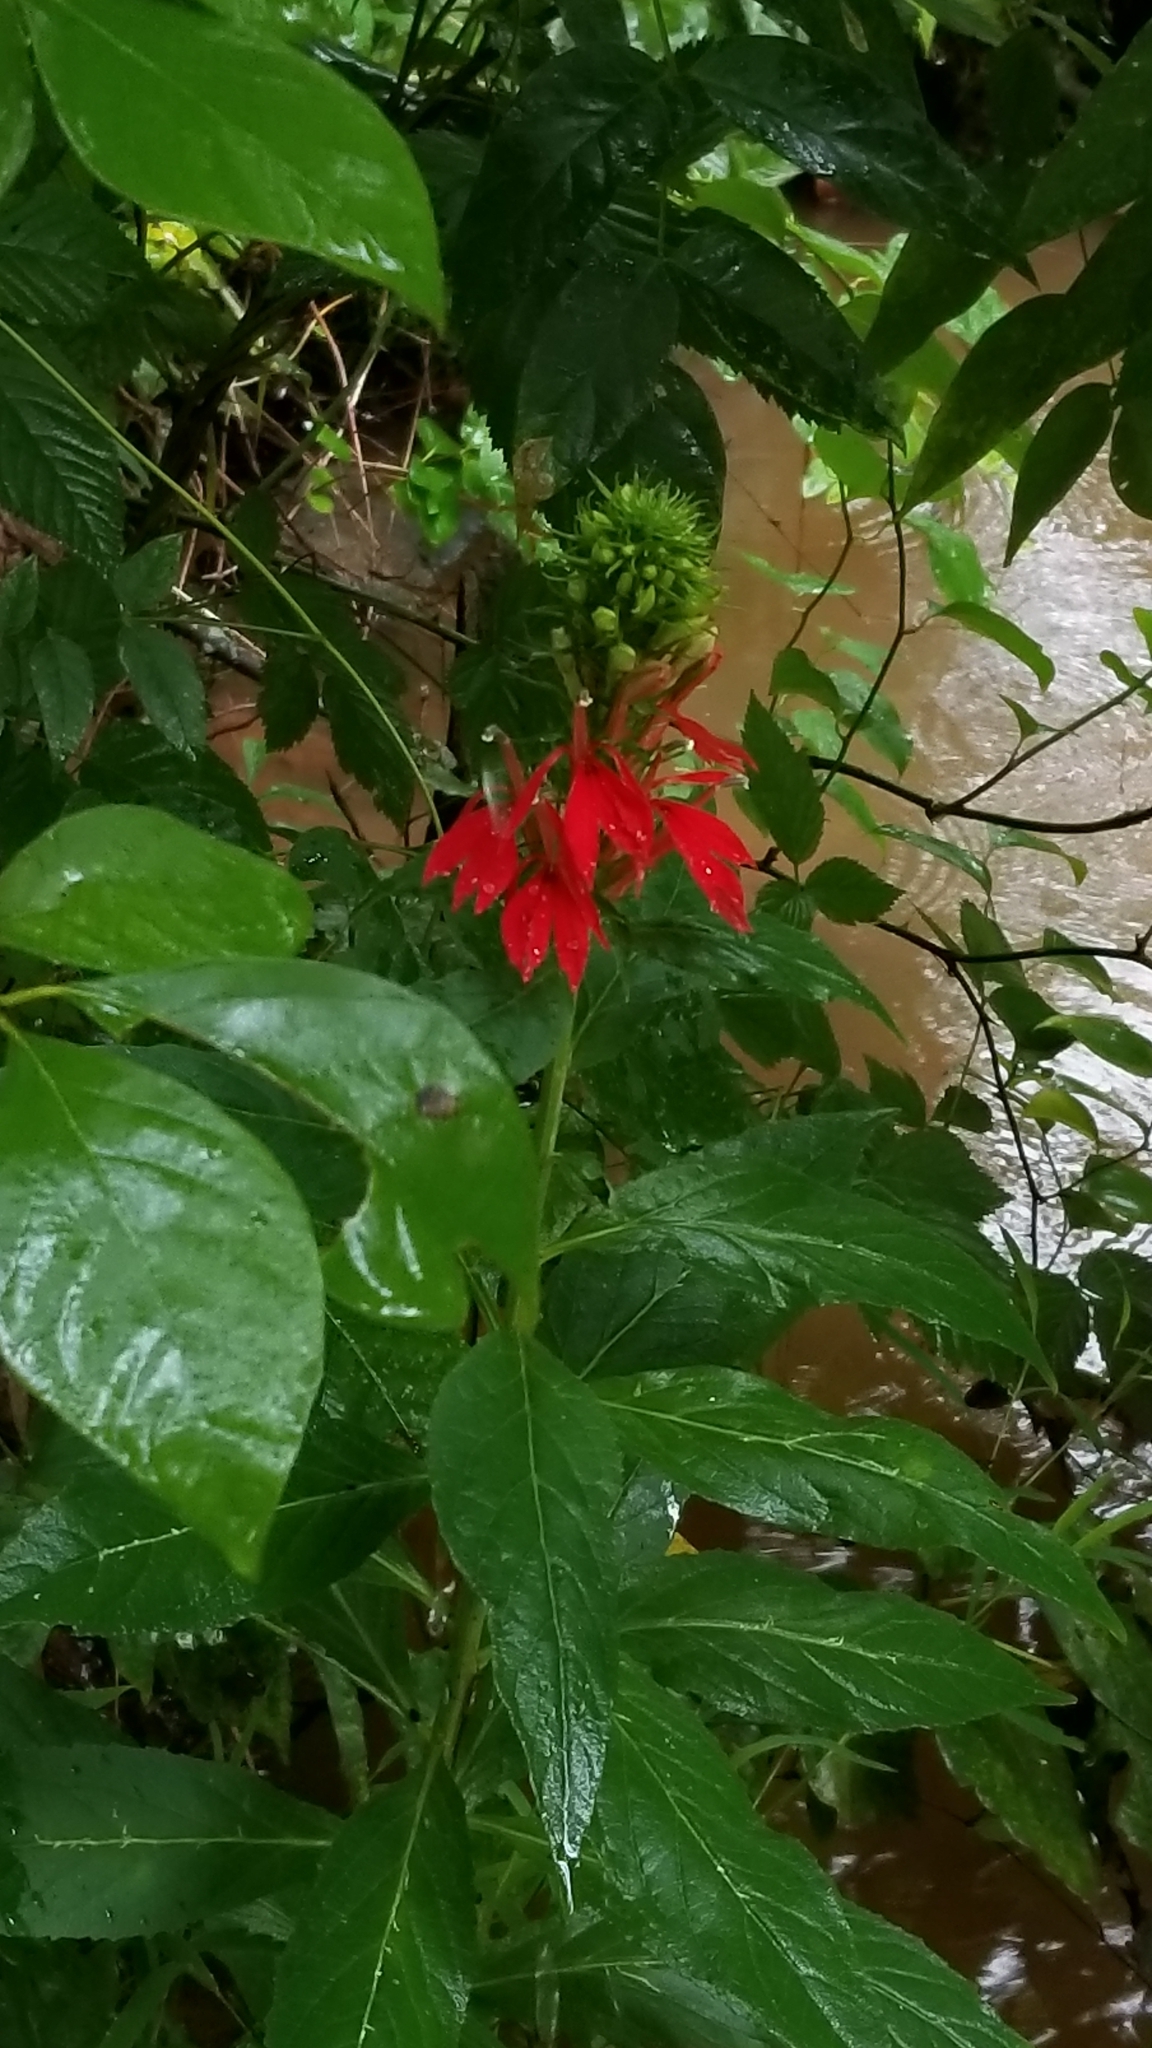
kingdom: Plantae
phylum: Tracheophyta
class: Magnoliopsida
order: Asterales
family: Campanulaceae
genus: Lobelia
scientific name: Lobelia cardinalis
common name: Cardinal flower
